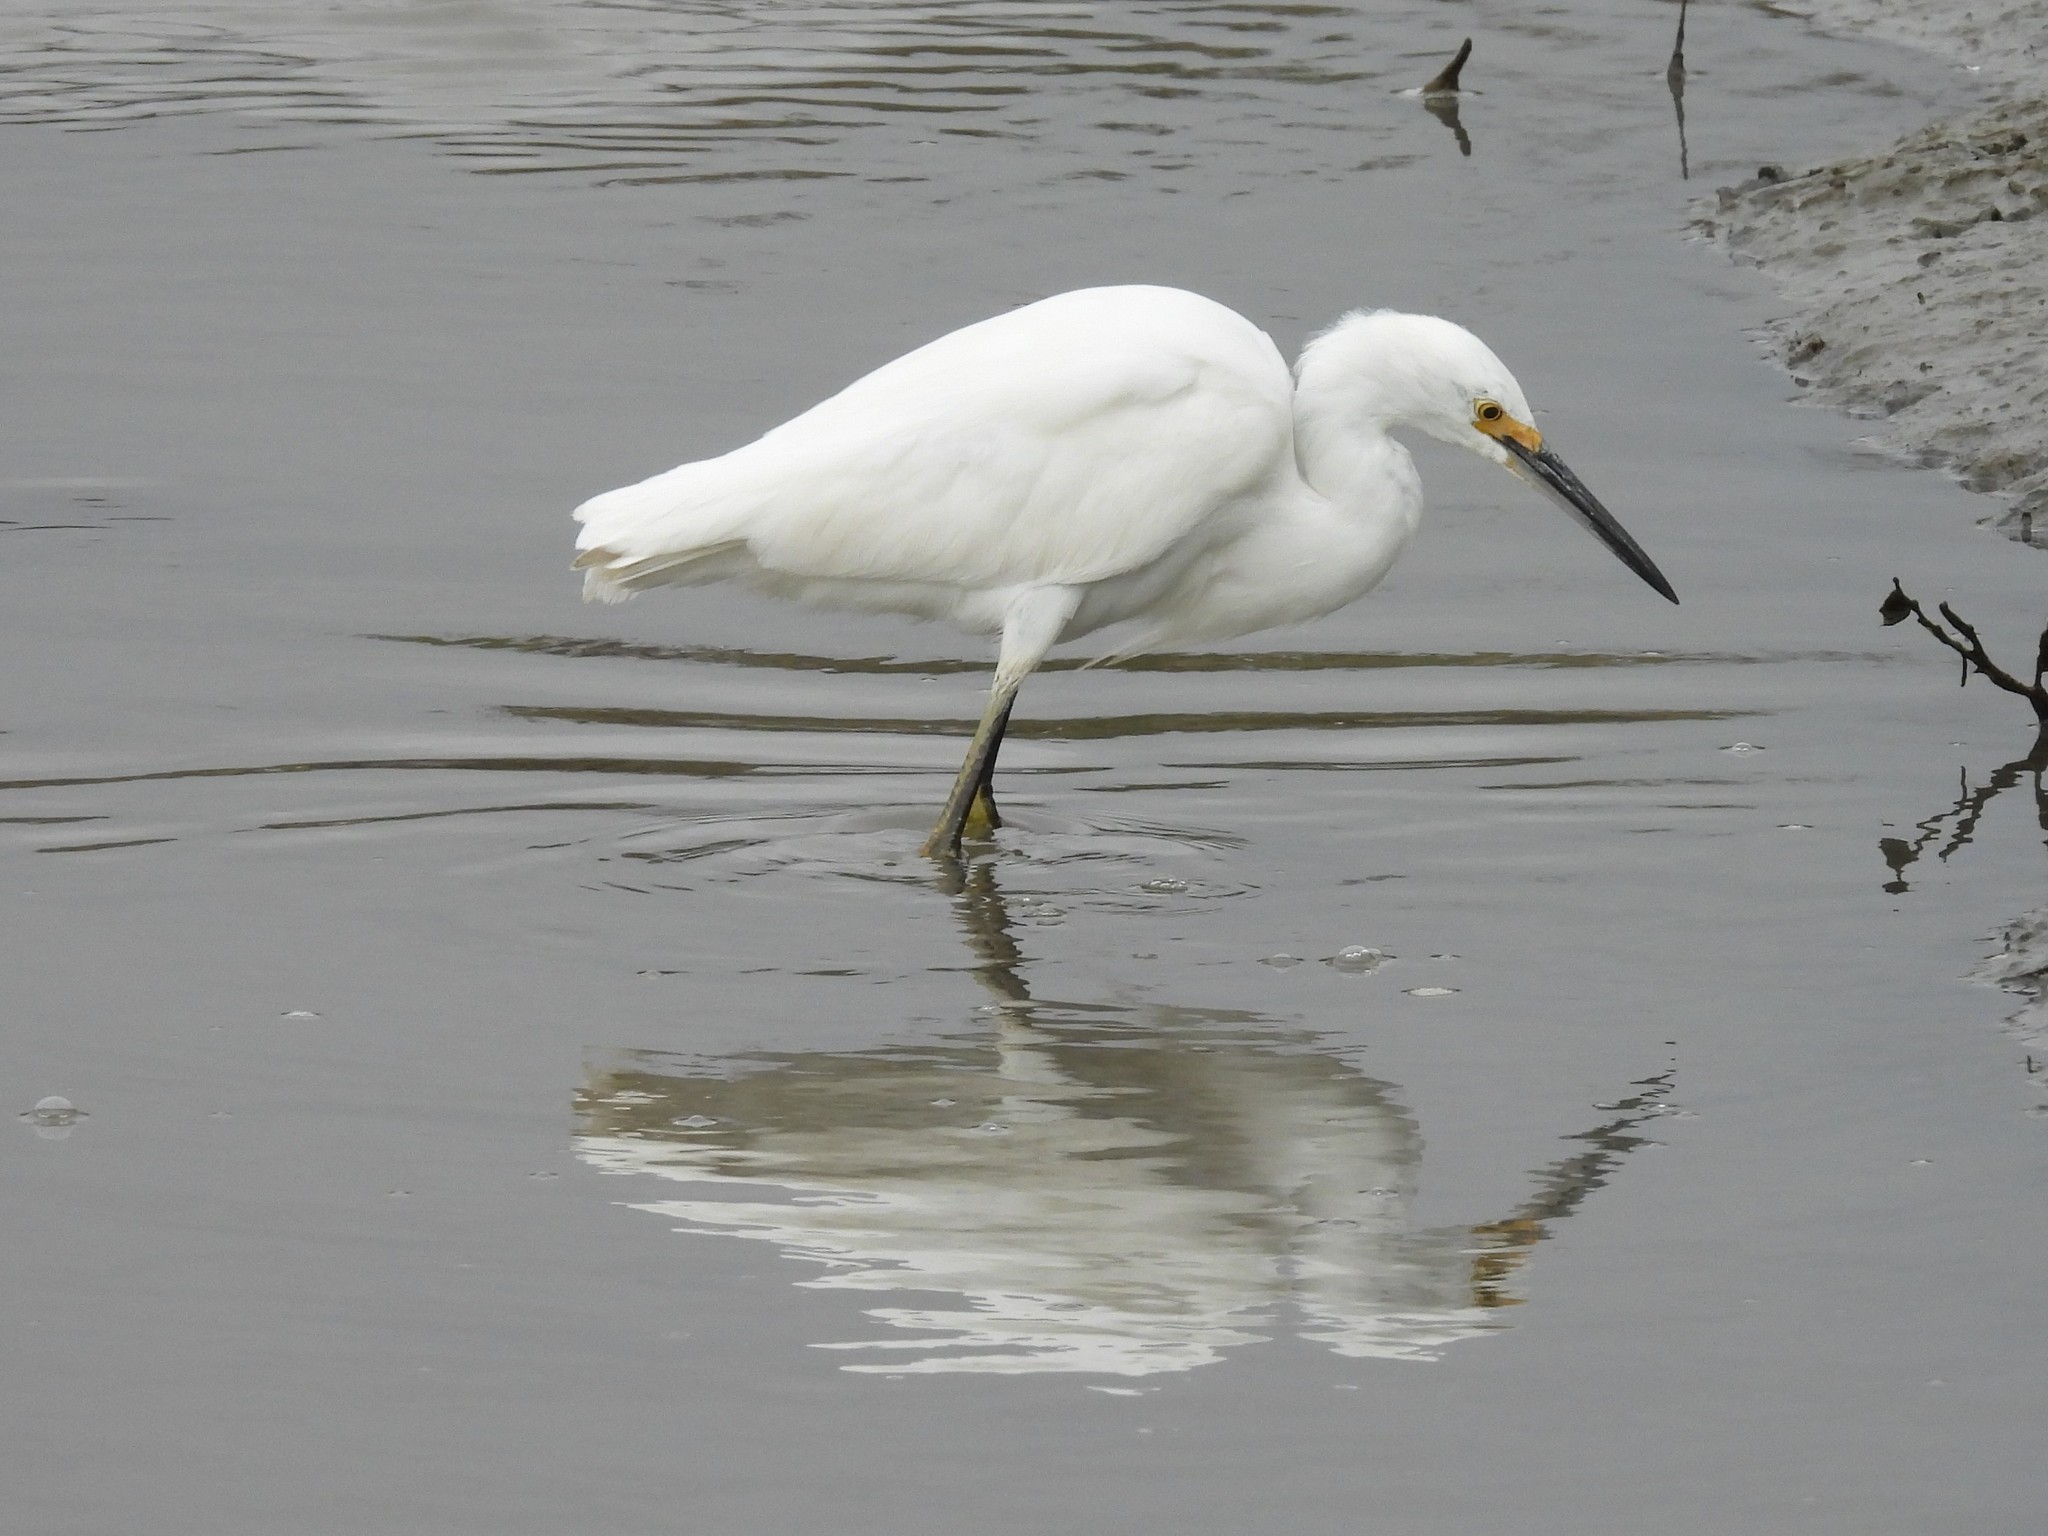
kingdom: Animalia
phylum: Chordata
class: Aves
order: Pelecaniformes
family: Ardeidae
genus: Egretta
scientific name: Egretta thula
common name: Snowy egret
